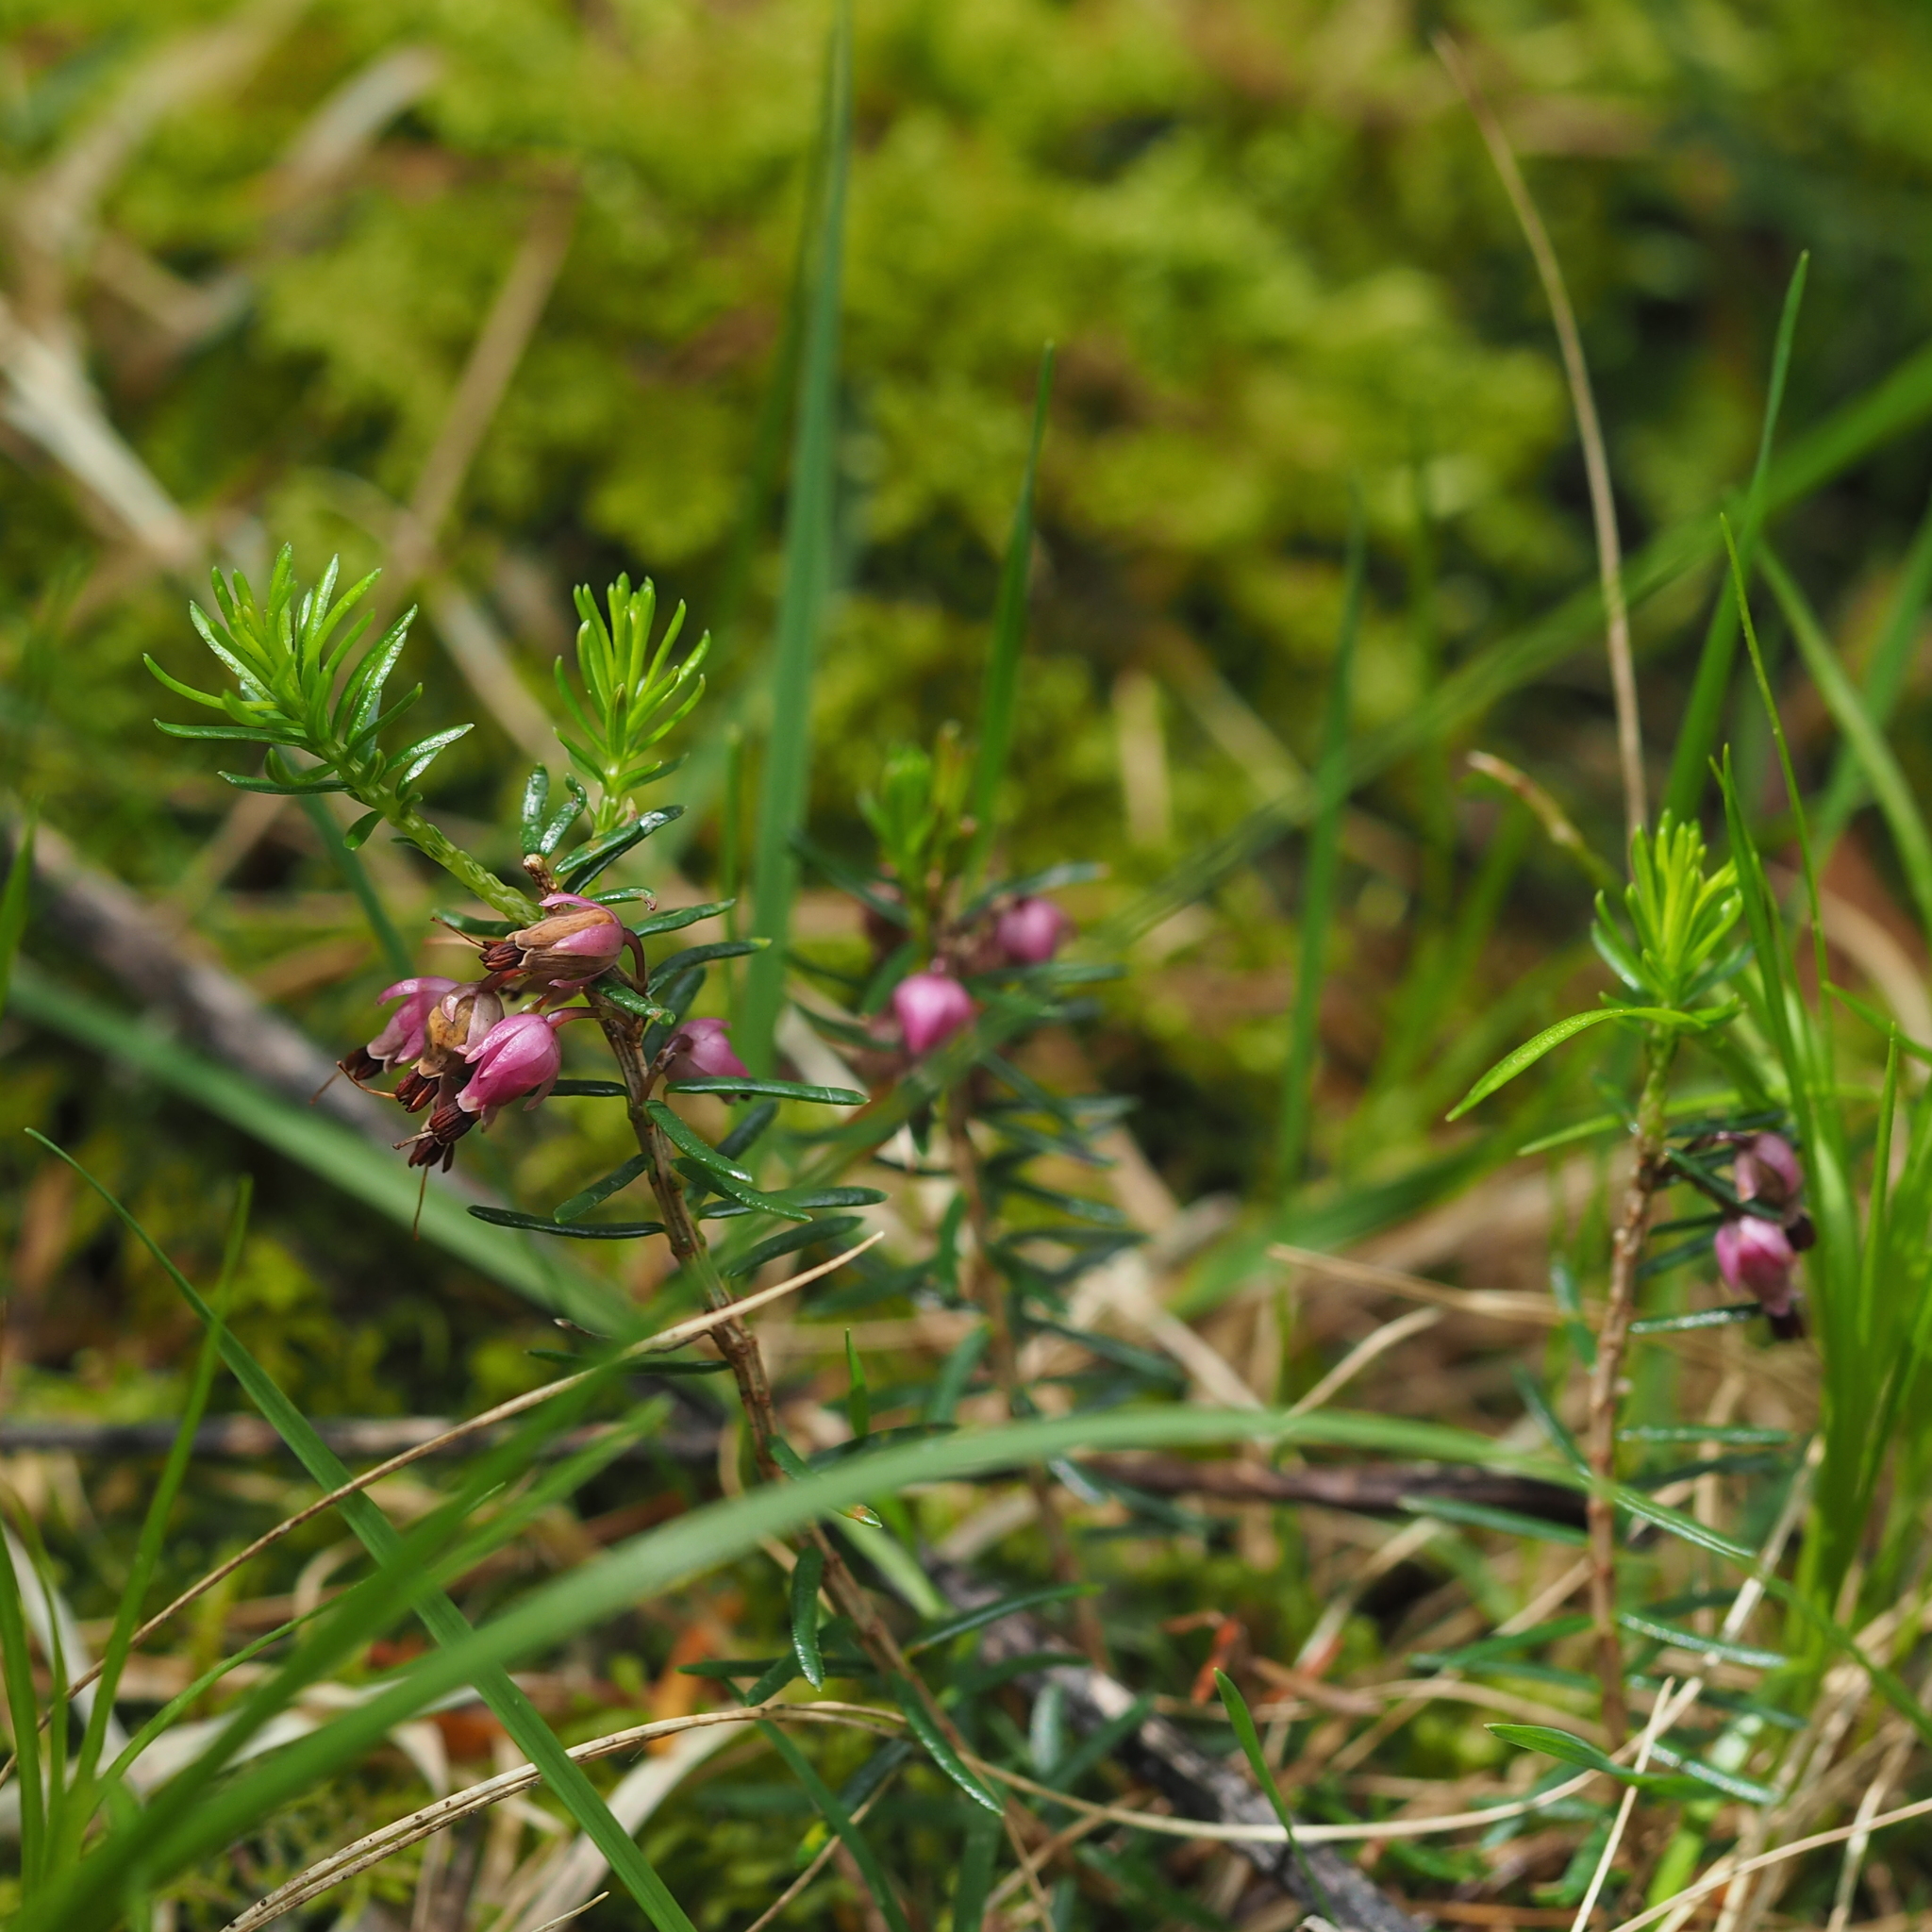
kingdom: Plantae
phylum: Tracheophyta
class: Magnoliopsida
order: Ericales
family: Ericaceae
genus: Erica
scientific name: Erica carnea
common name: Winter heath
